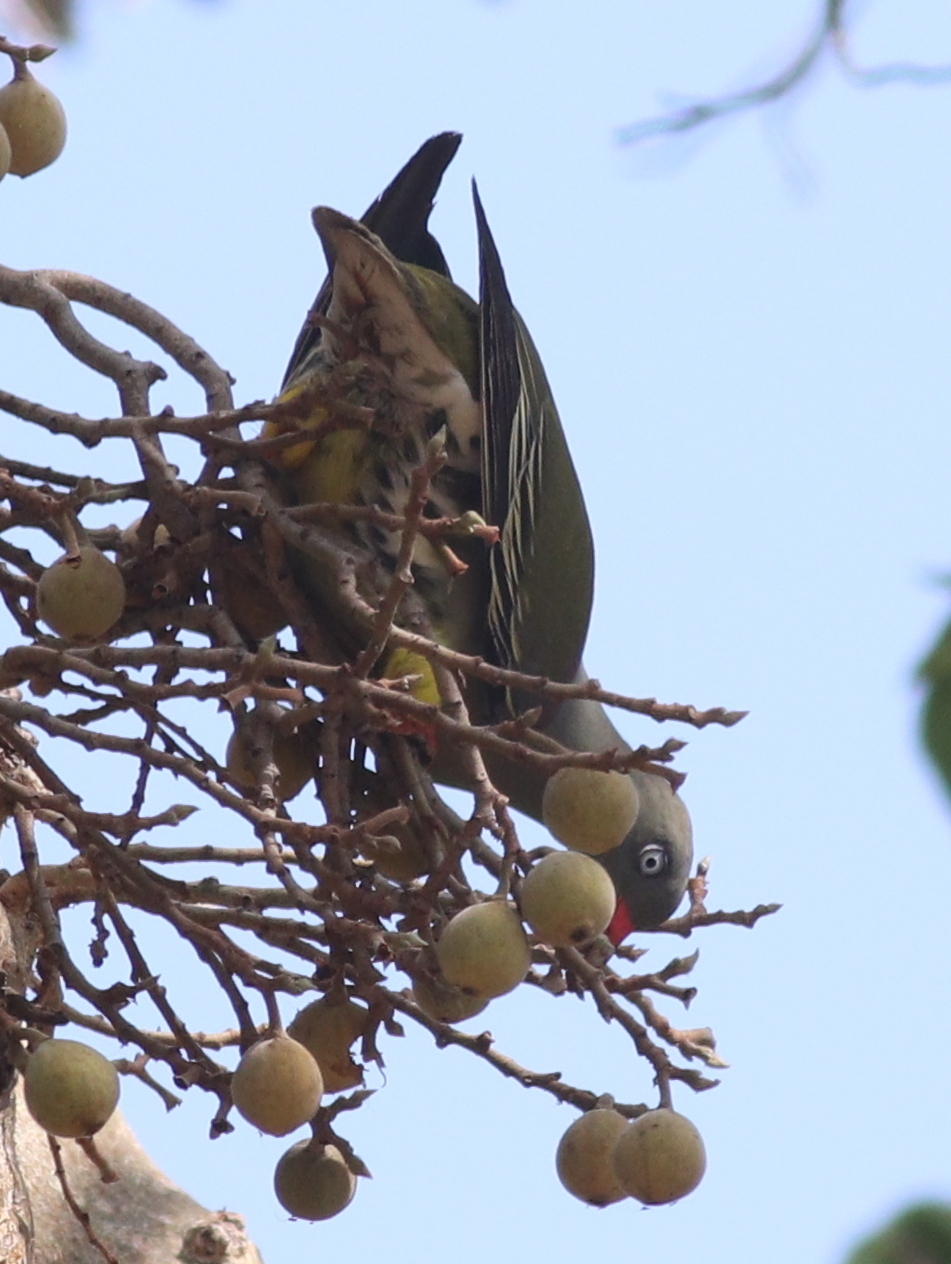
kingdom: Animalia
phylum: Chordata
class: Aves
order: Columbiformes
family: Columbidae
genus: Treron
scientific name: Treron calvus
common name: African green pigeon
